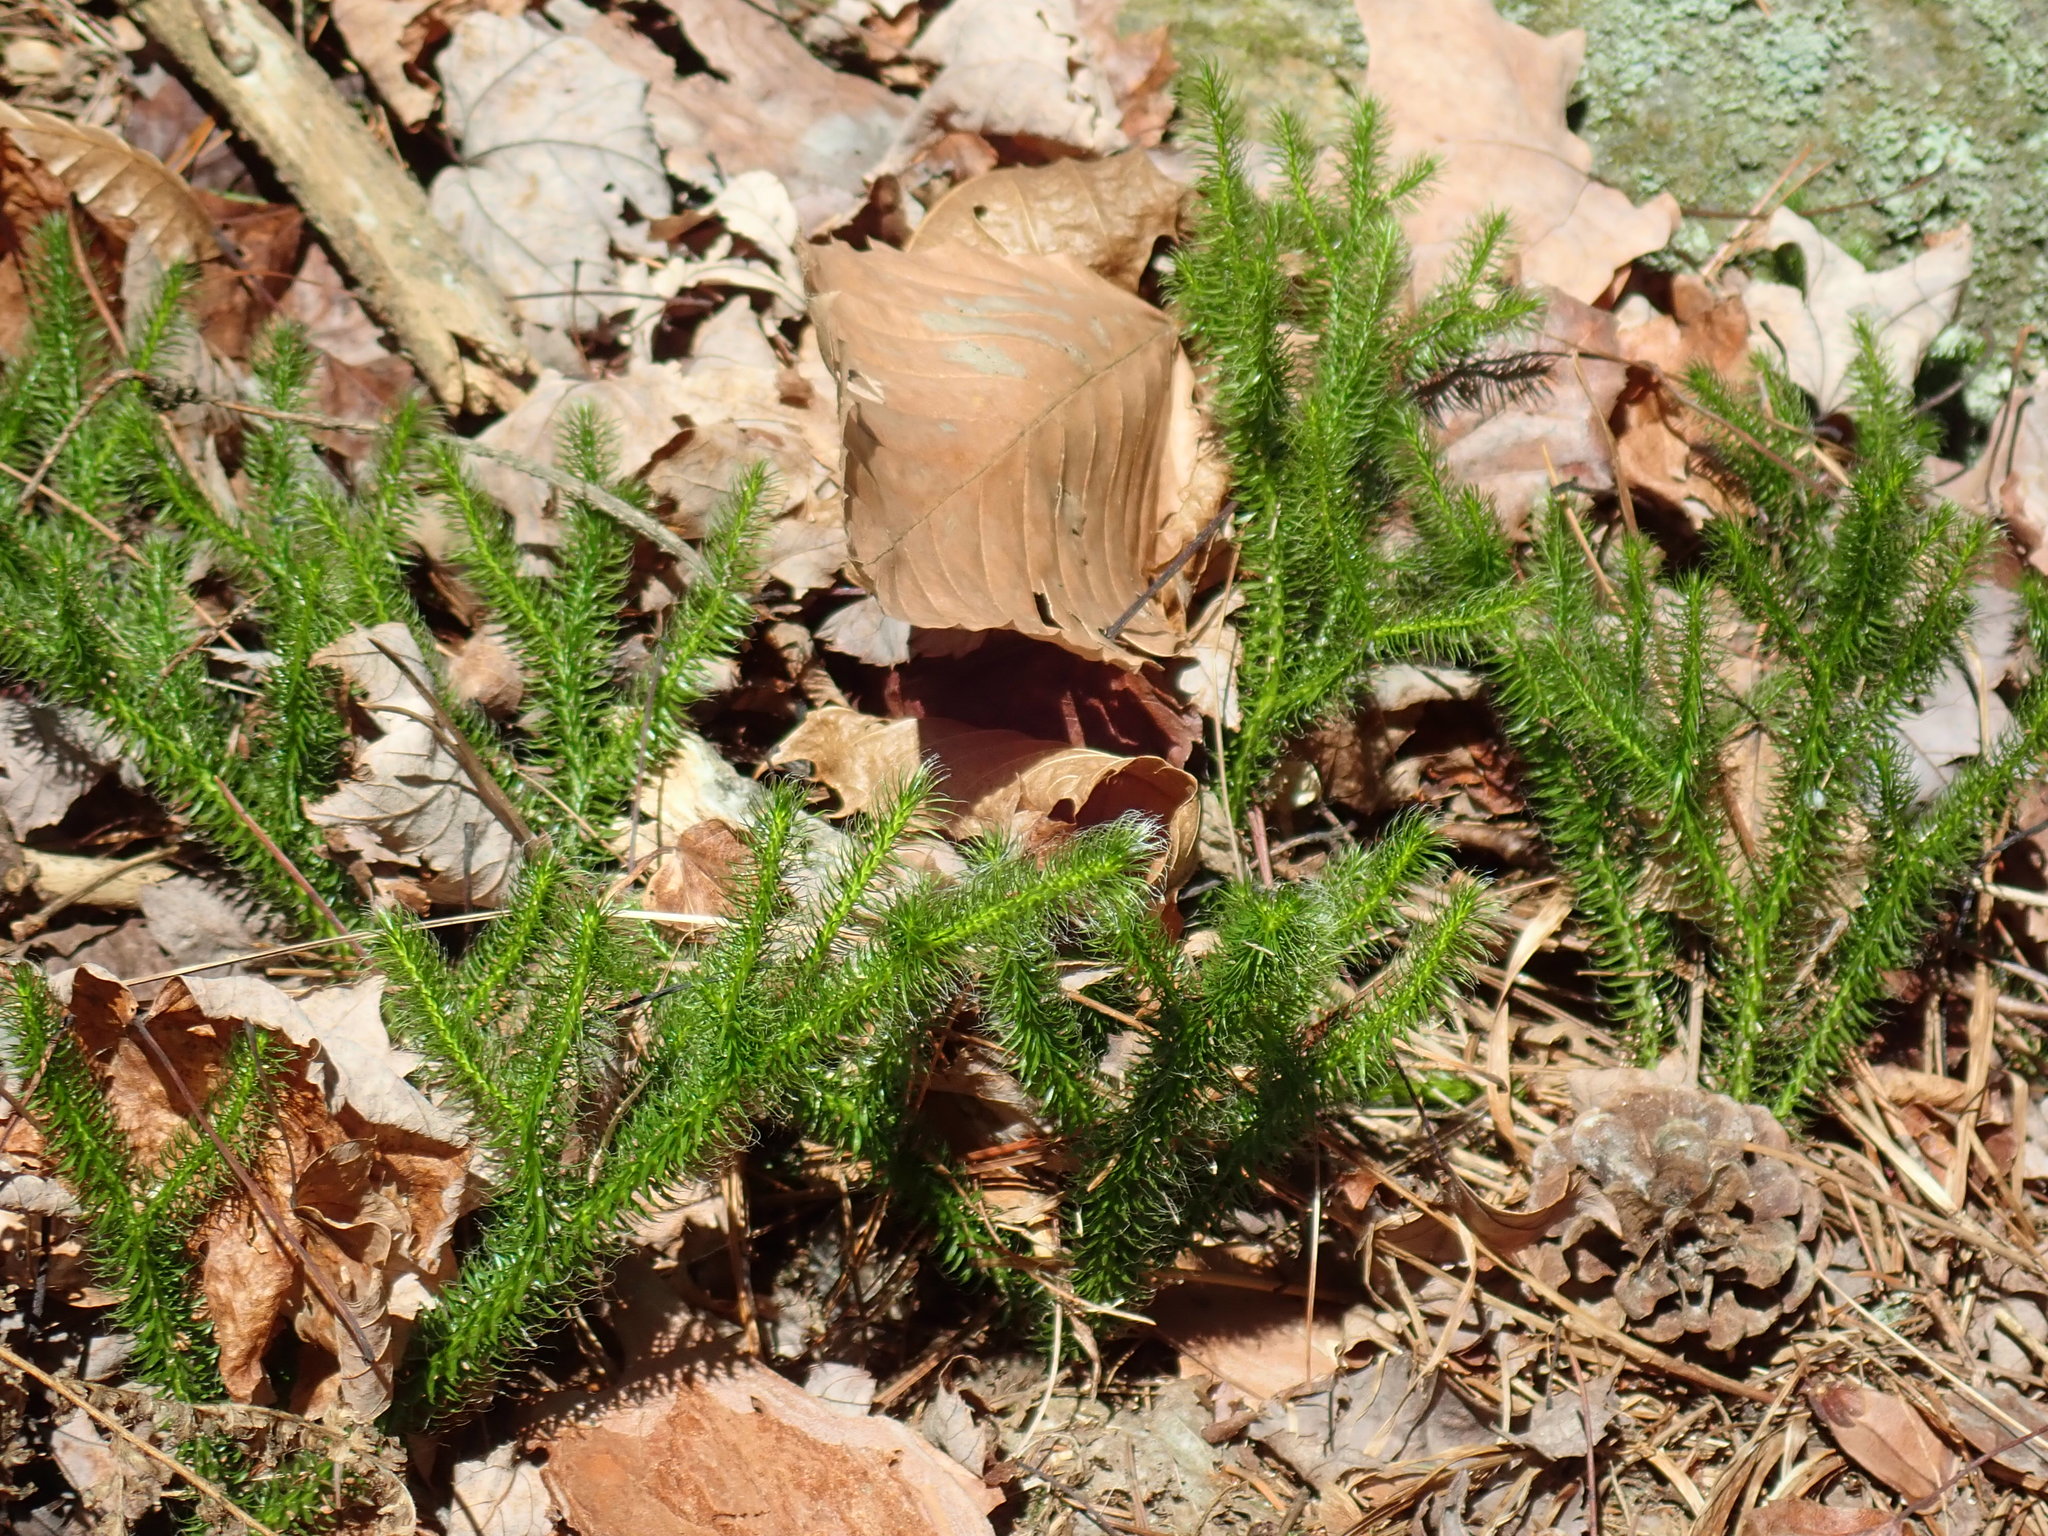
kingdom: Plantae
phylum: Tracheophyta
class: Lycopodiopsida
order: Lycopodiales
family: Lycopodiaceae
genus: Lycopodium
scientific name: Lycopodium clavatum
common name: Stag's-horn clubmoss
